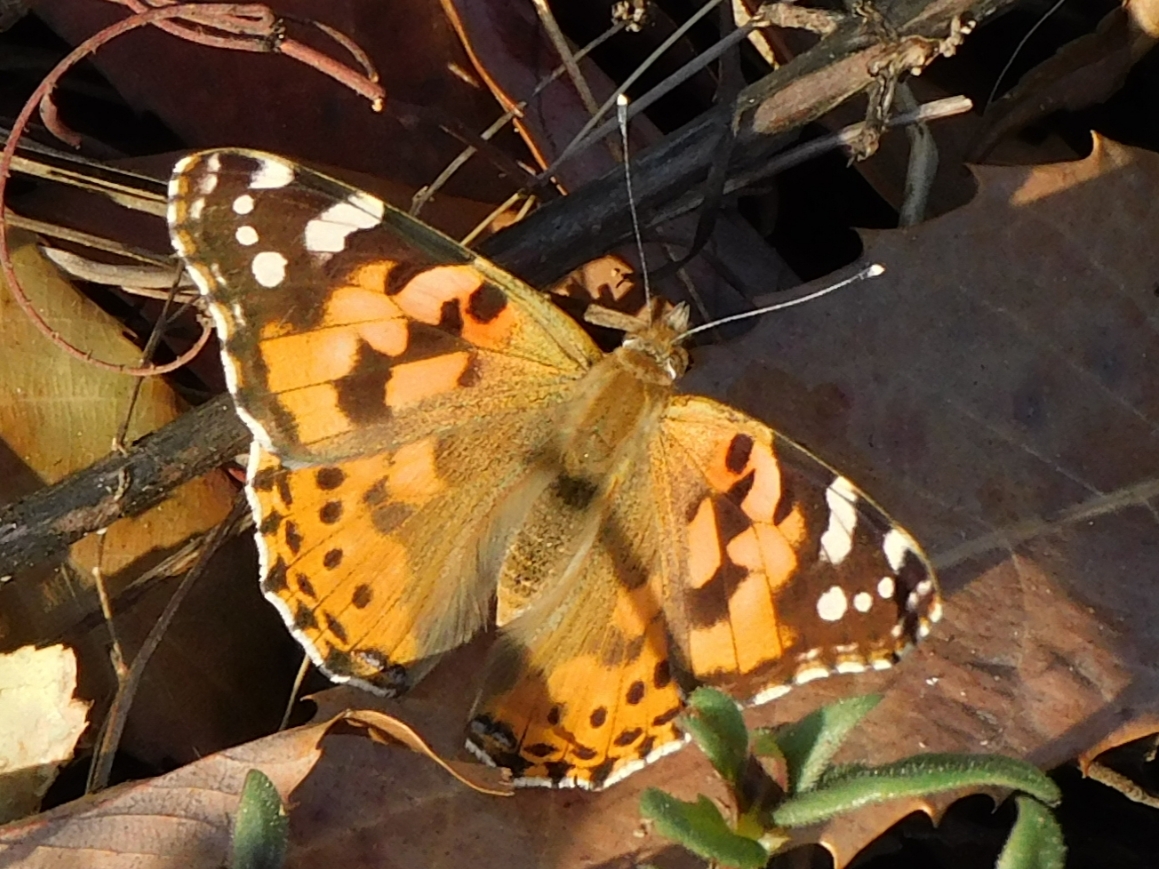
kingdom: Animalia
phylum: Arthropoda
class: Insecta
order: Lepidoptera
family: Nymphalidae
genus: Vanessa
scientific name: Vanessa cardui
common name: Painted lady
